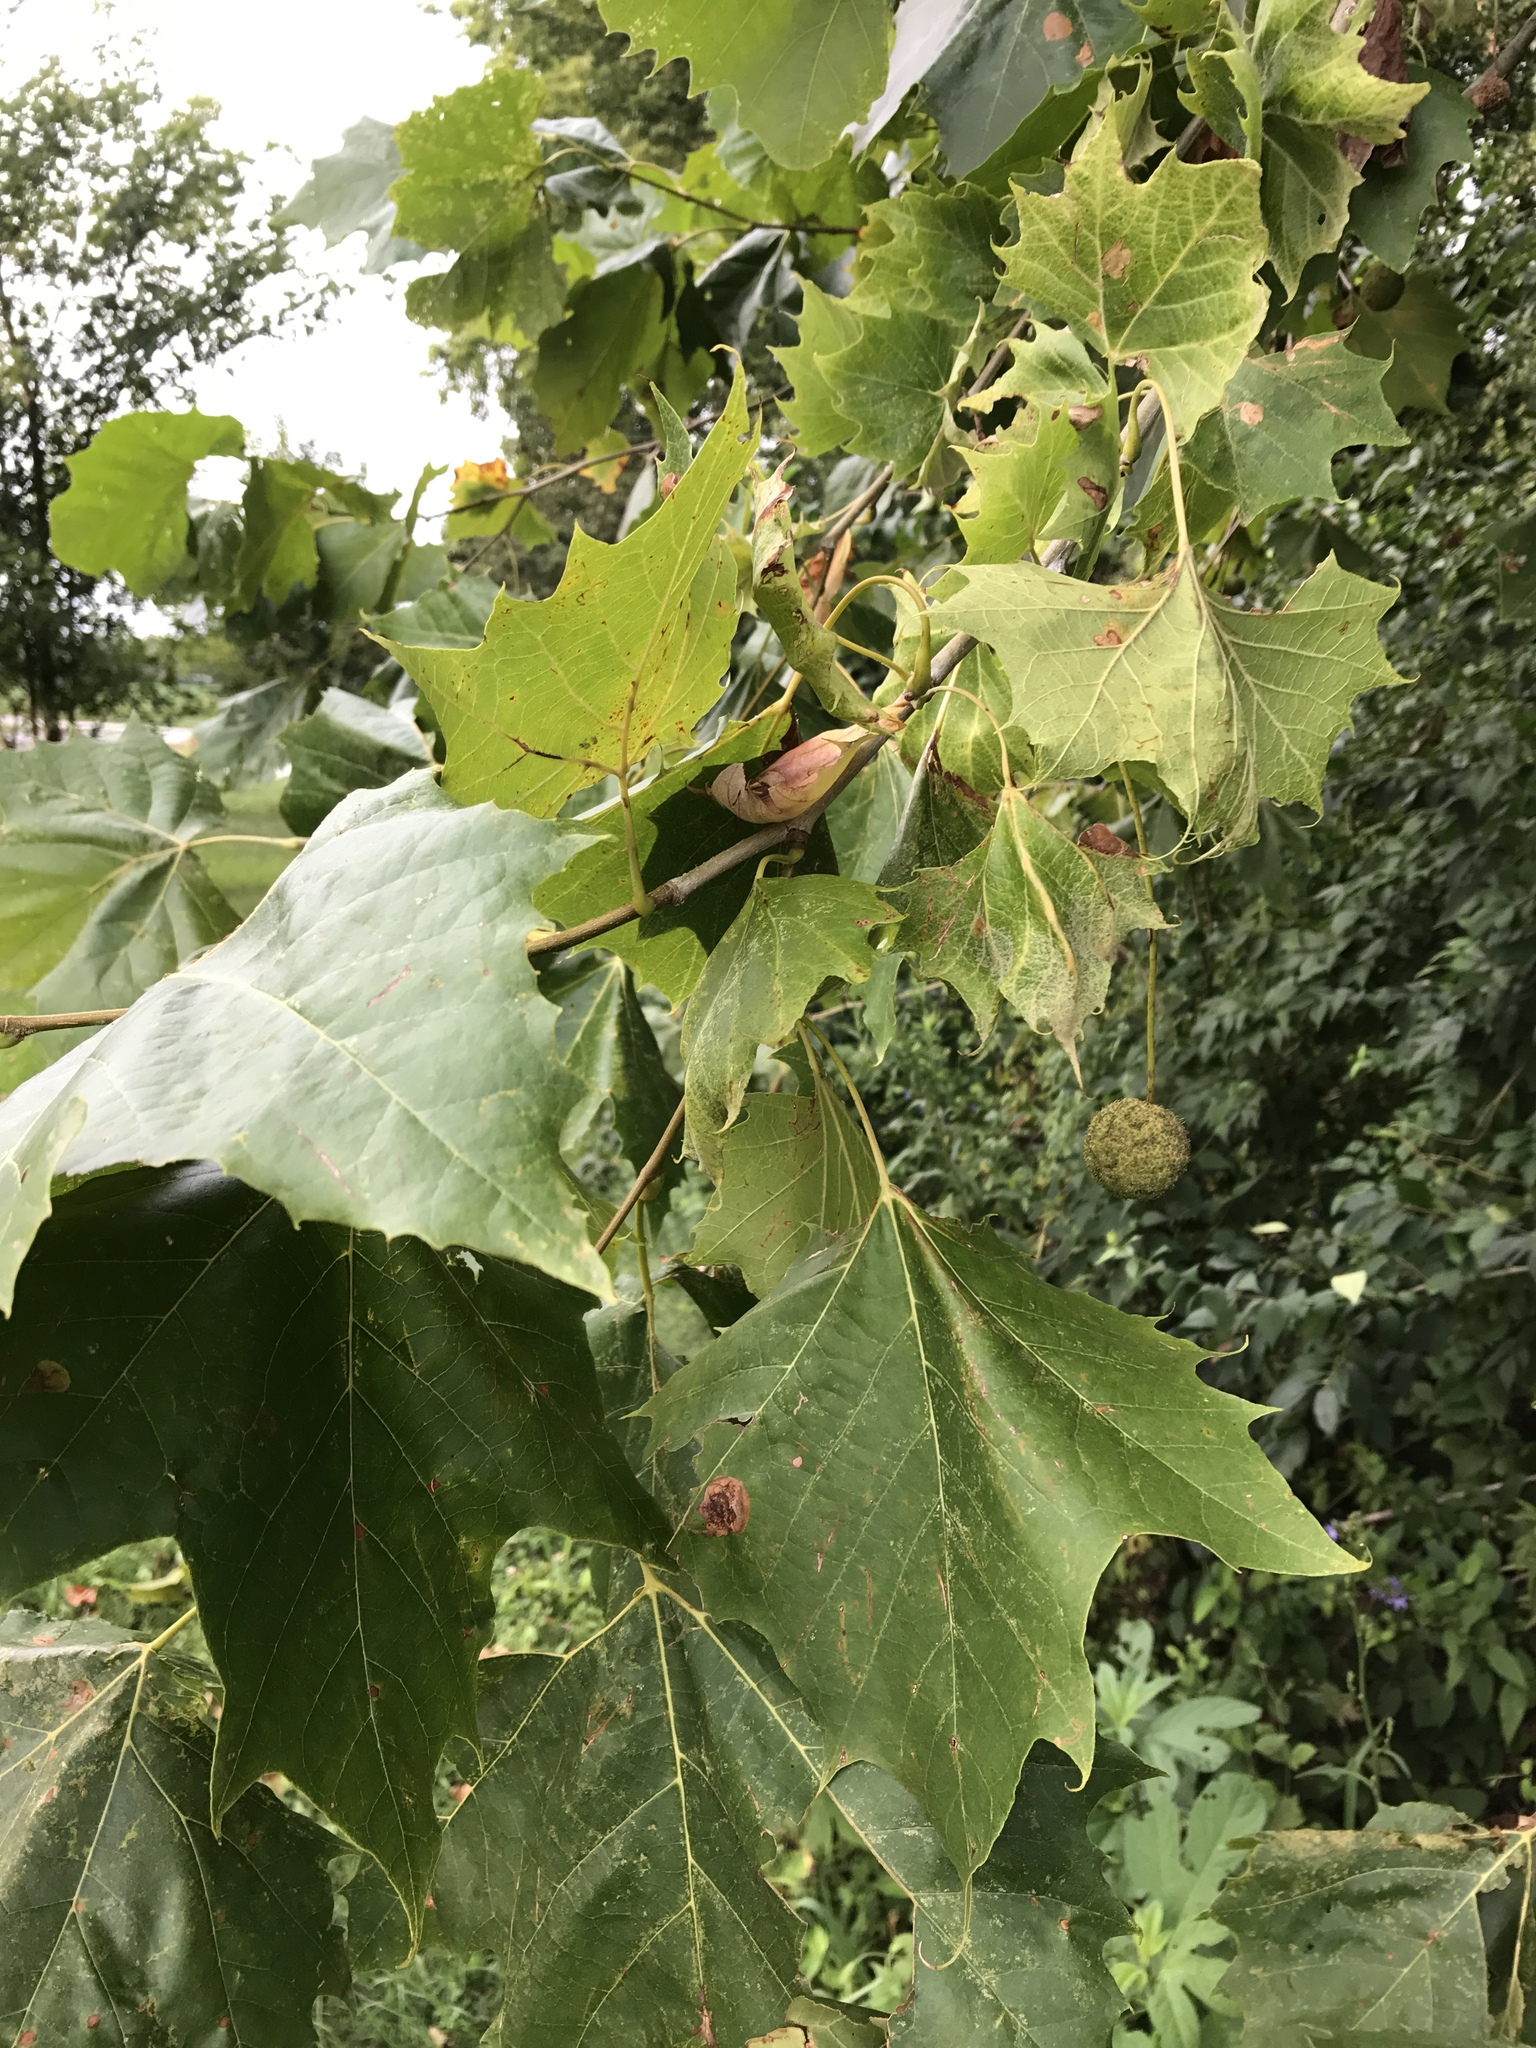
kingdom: Plantae
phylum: Tracheophyta
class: Magnoliopsida
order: Proteales
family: Platanaceae
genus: Platanus
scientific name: Platanus occidentalis
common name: American sycamore
